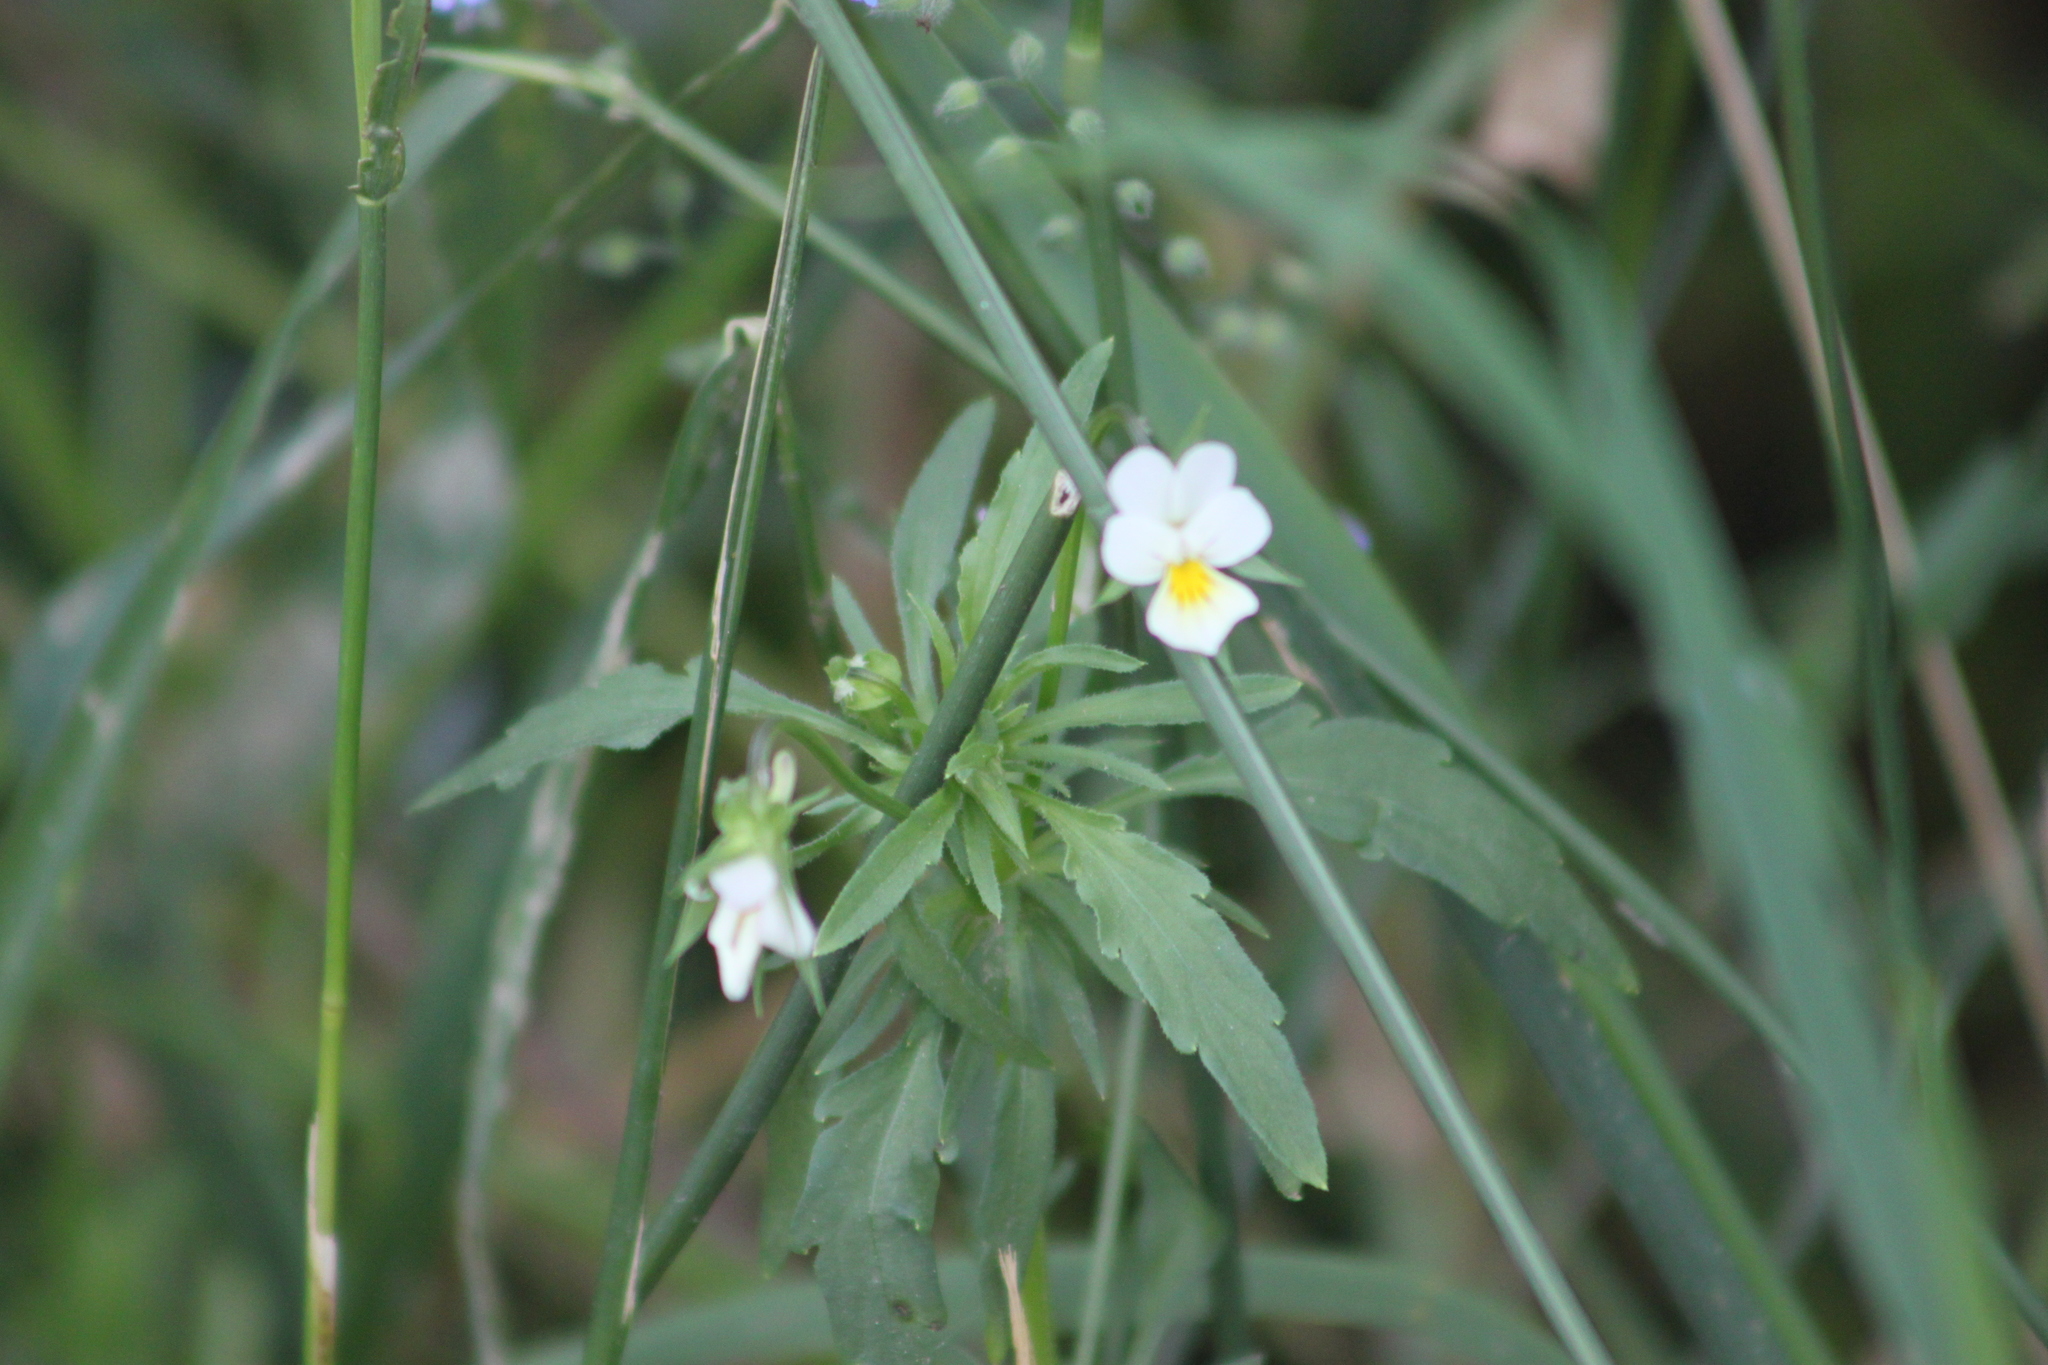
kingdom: Plantae
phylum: Tracheophyta
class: Magnoliopsida
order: Malpighiales
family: Violaceae
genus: Viola
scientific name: Viola arvensis
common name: Field pansy
